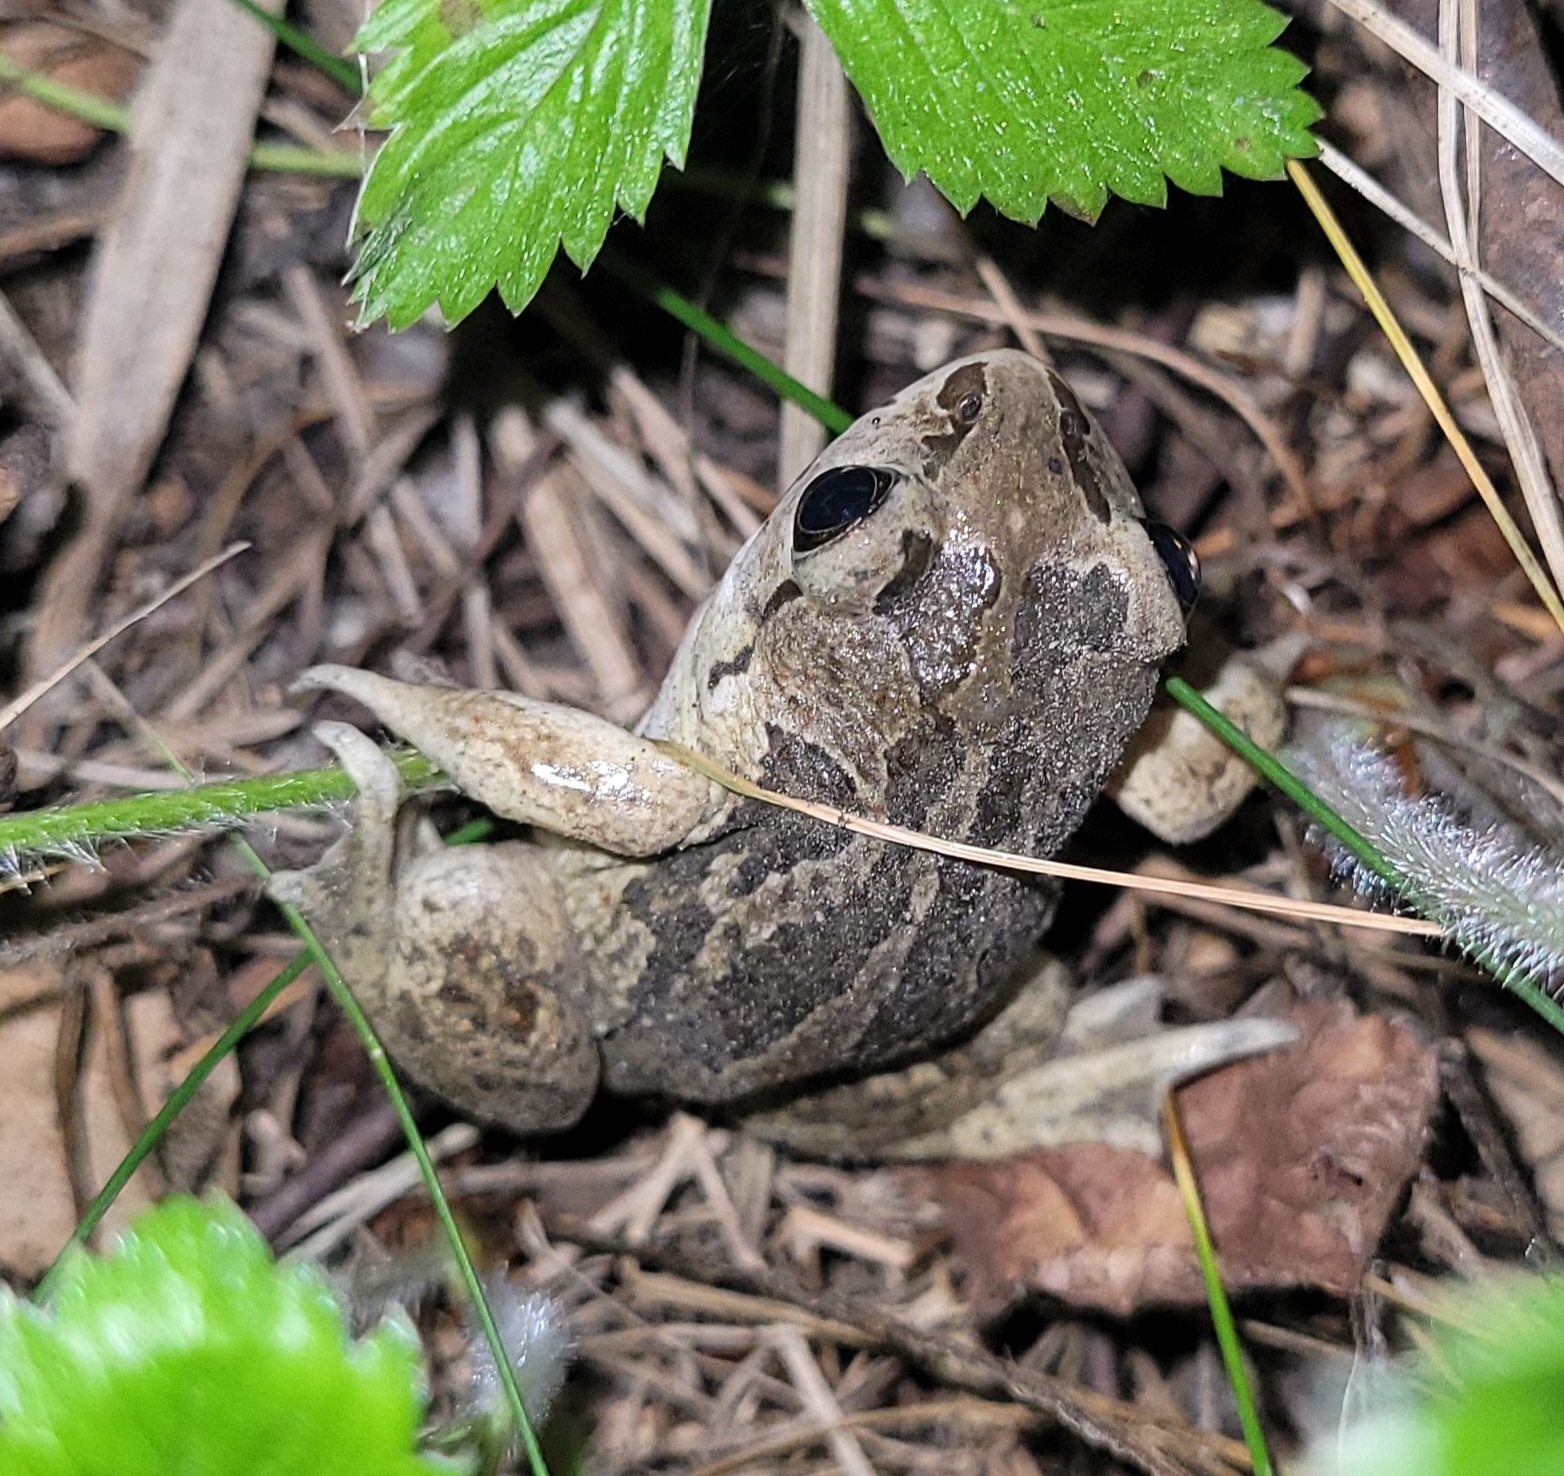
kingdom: Animalia
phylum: Chordata
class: Amphibia
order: Anura
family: Pelobatidae
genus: Pelobates
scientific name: Pelobates fuscus
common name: Common eurasian spadefoot toad
